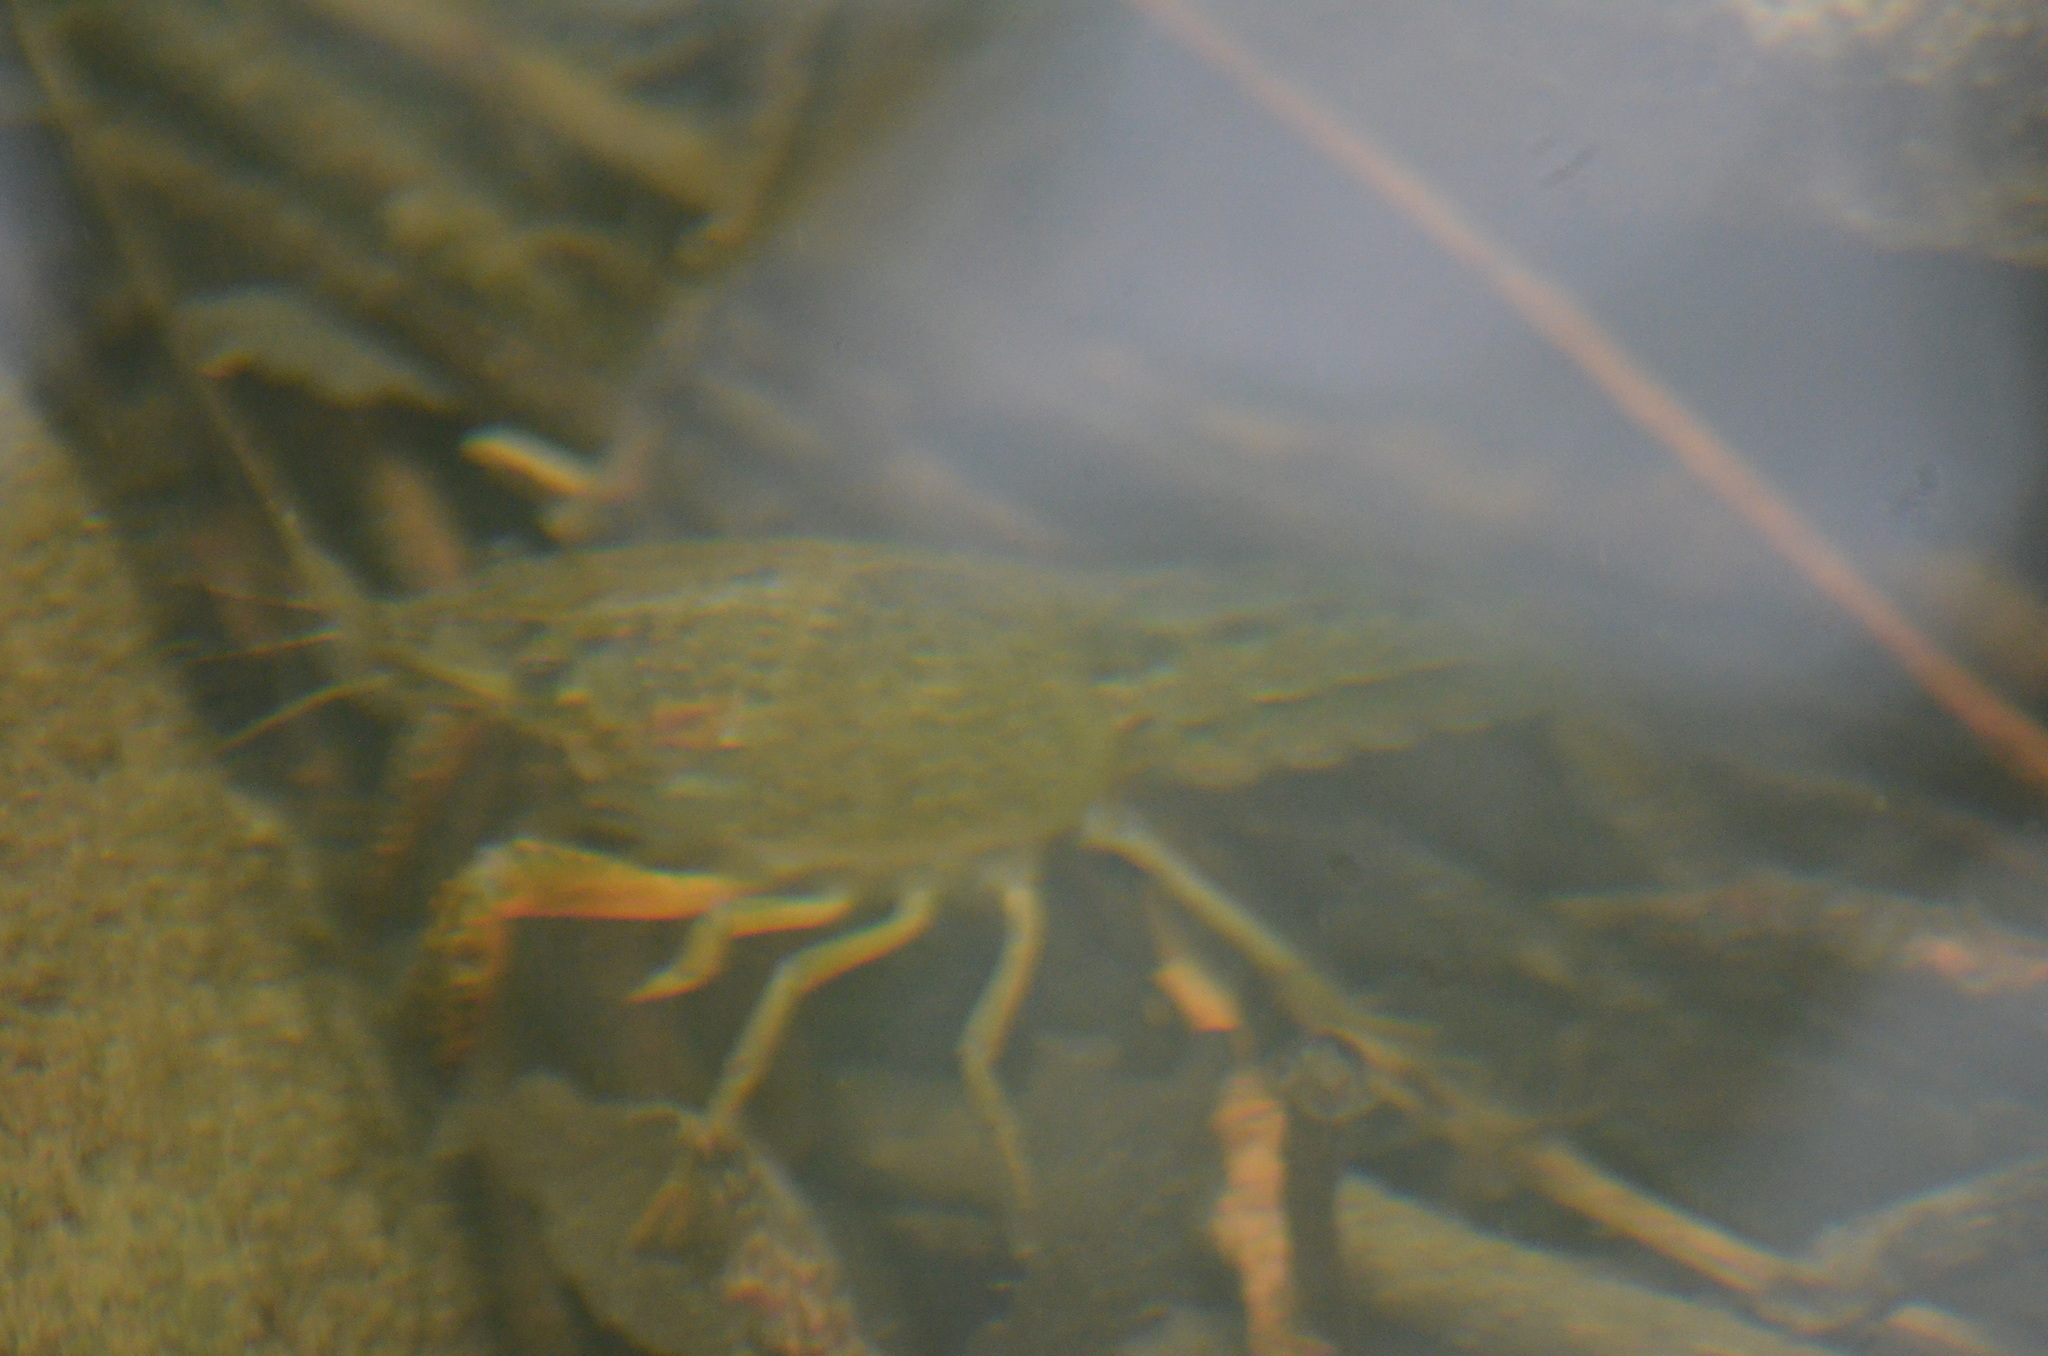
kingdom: Animalia
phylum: Arthropoda
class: Malacostraca
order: Decapoda
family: Cambaridae
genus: Procambarus
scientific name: Procambarus clarkii
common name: Red swamp crayfish
